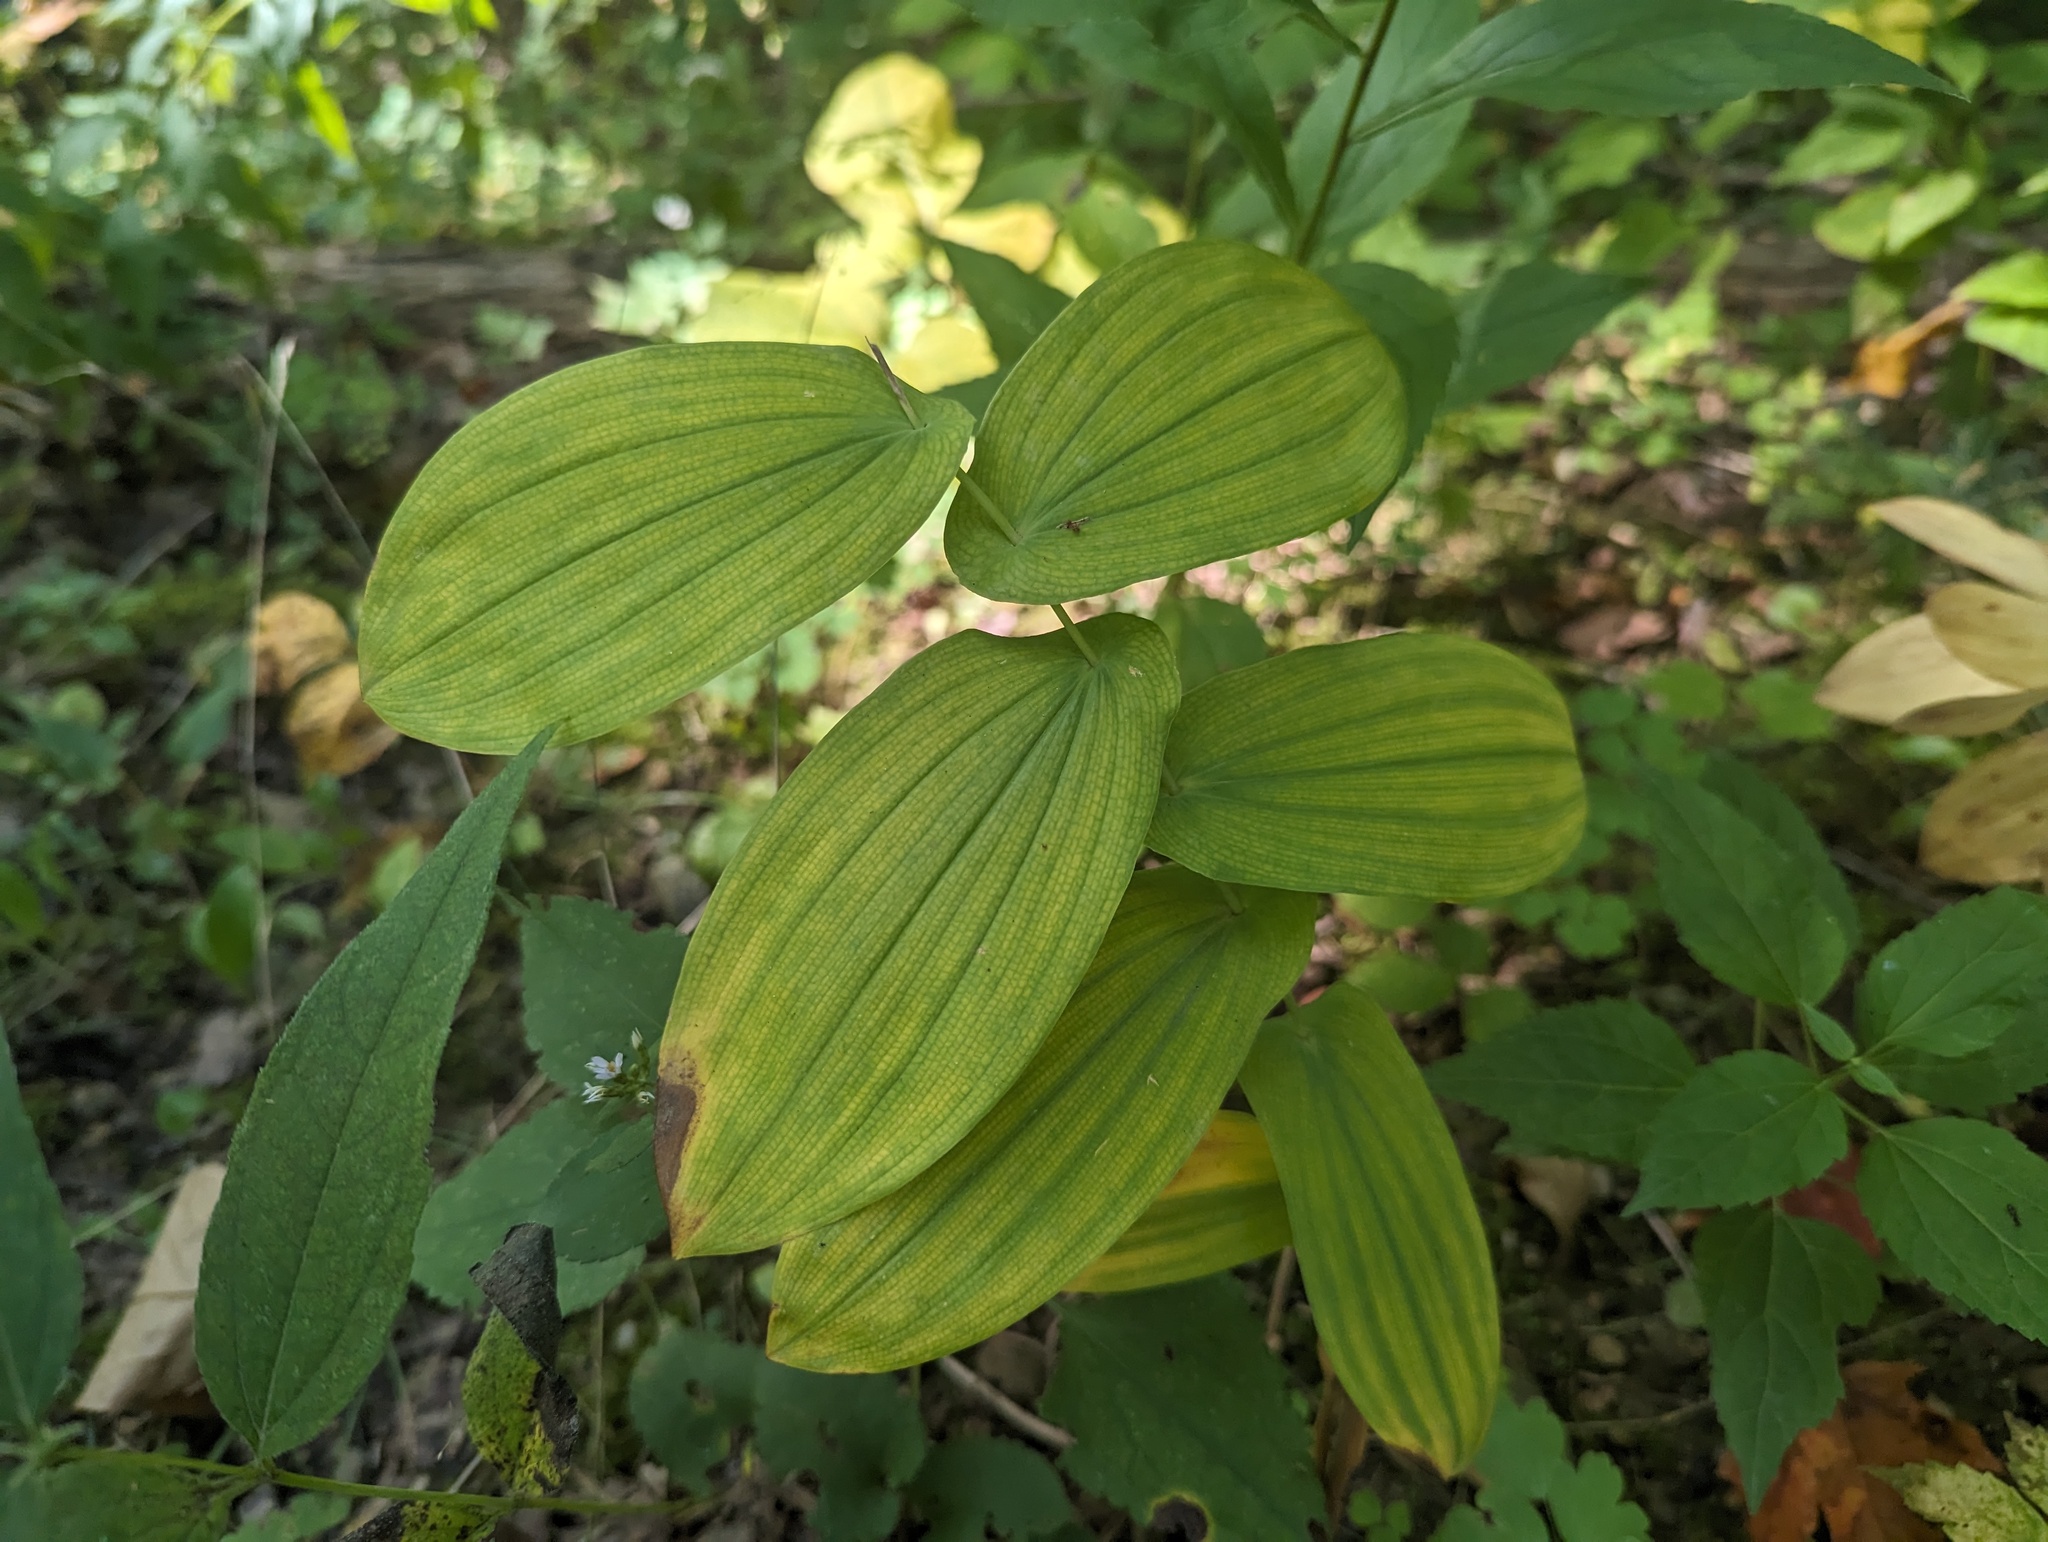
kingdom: Plantae
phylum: Tracheophyta
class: Liliopsida
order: Liliales
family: Colchicaceae
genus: Uvularia
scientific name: Uvularia grandiflora
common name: Bellwort
